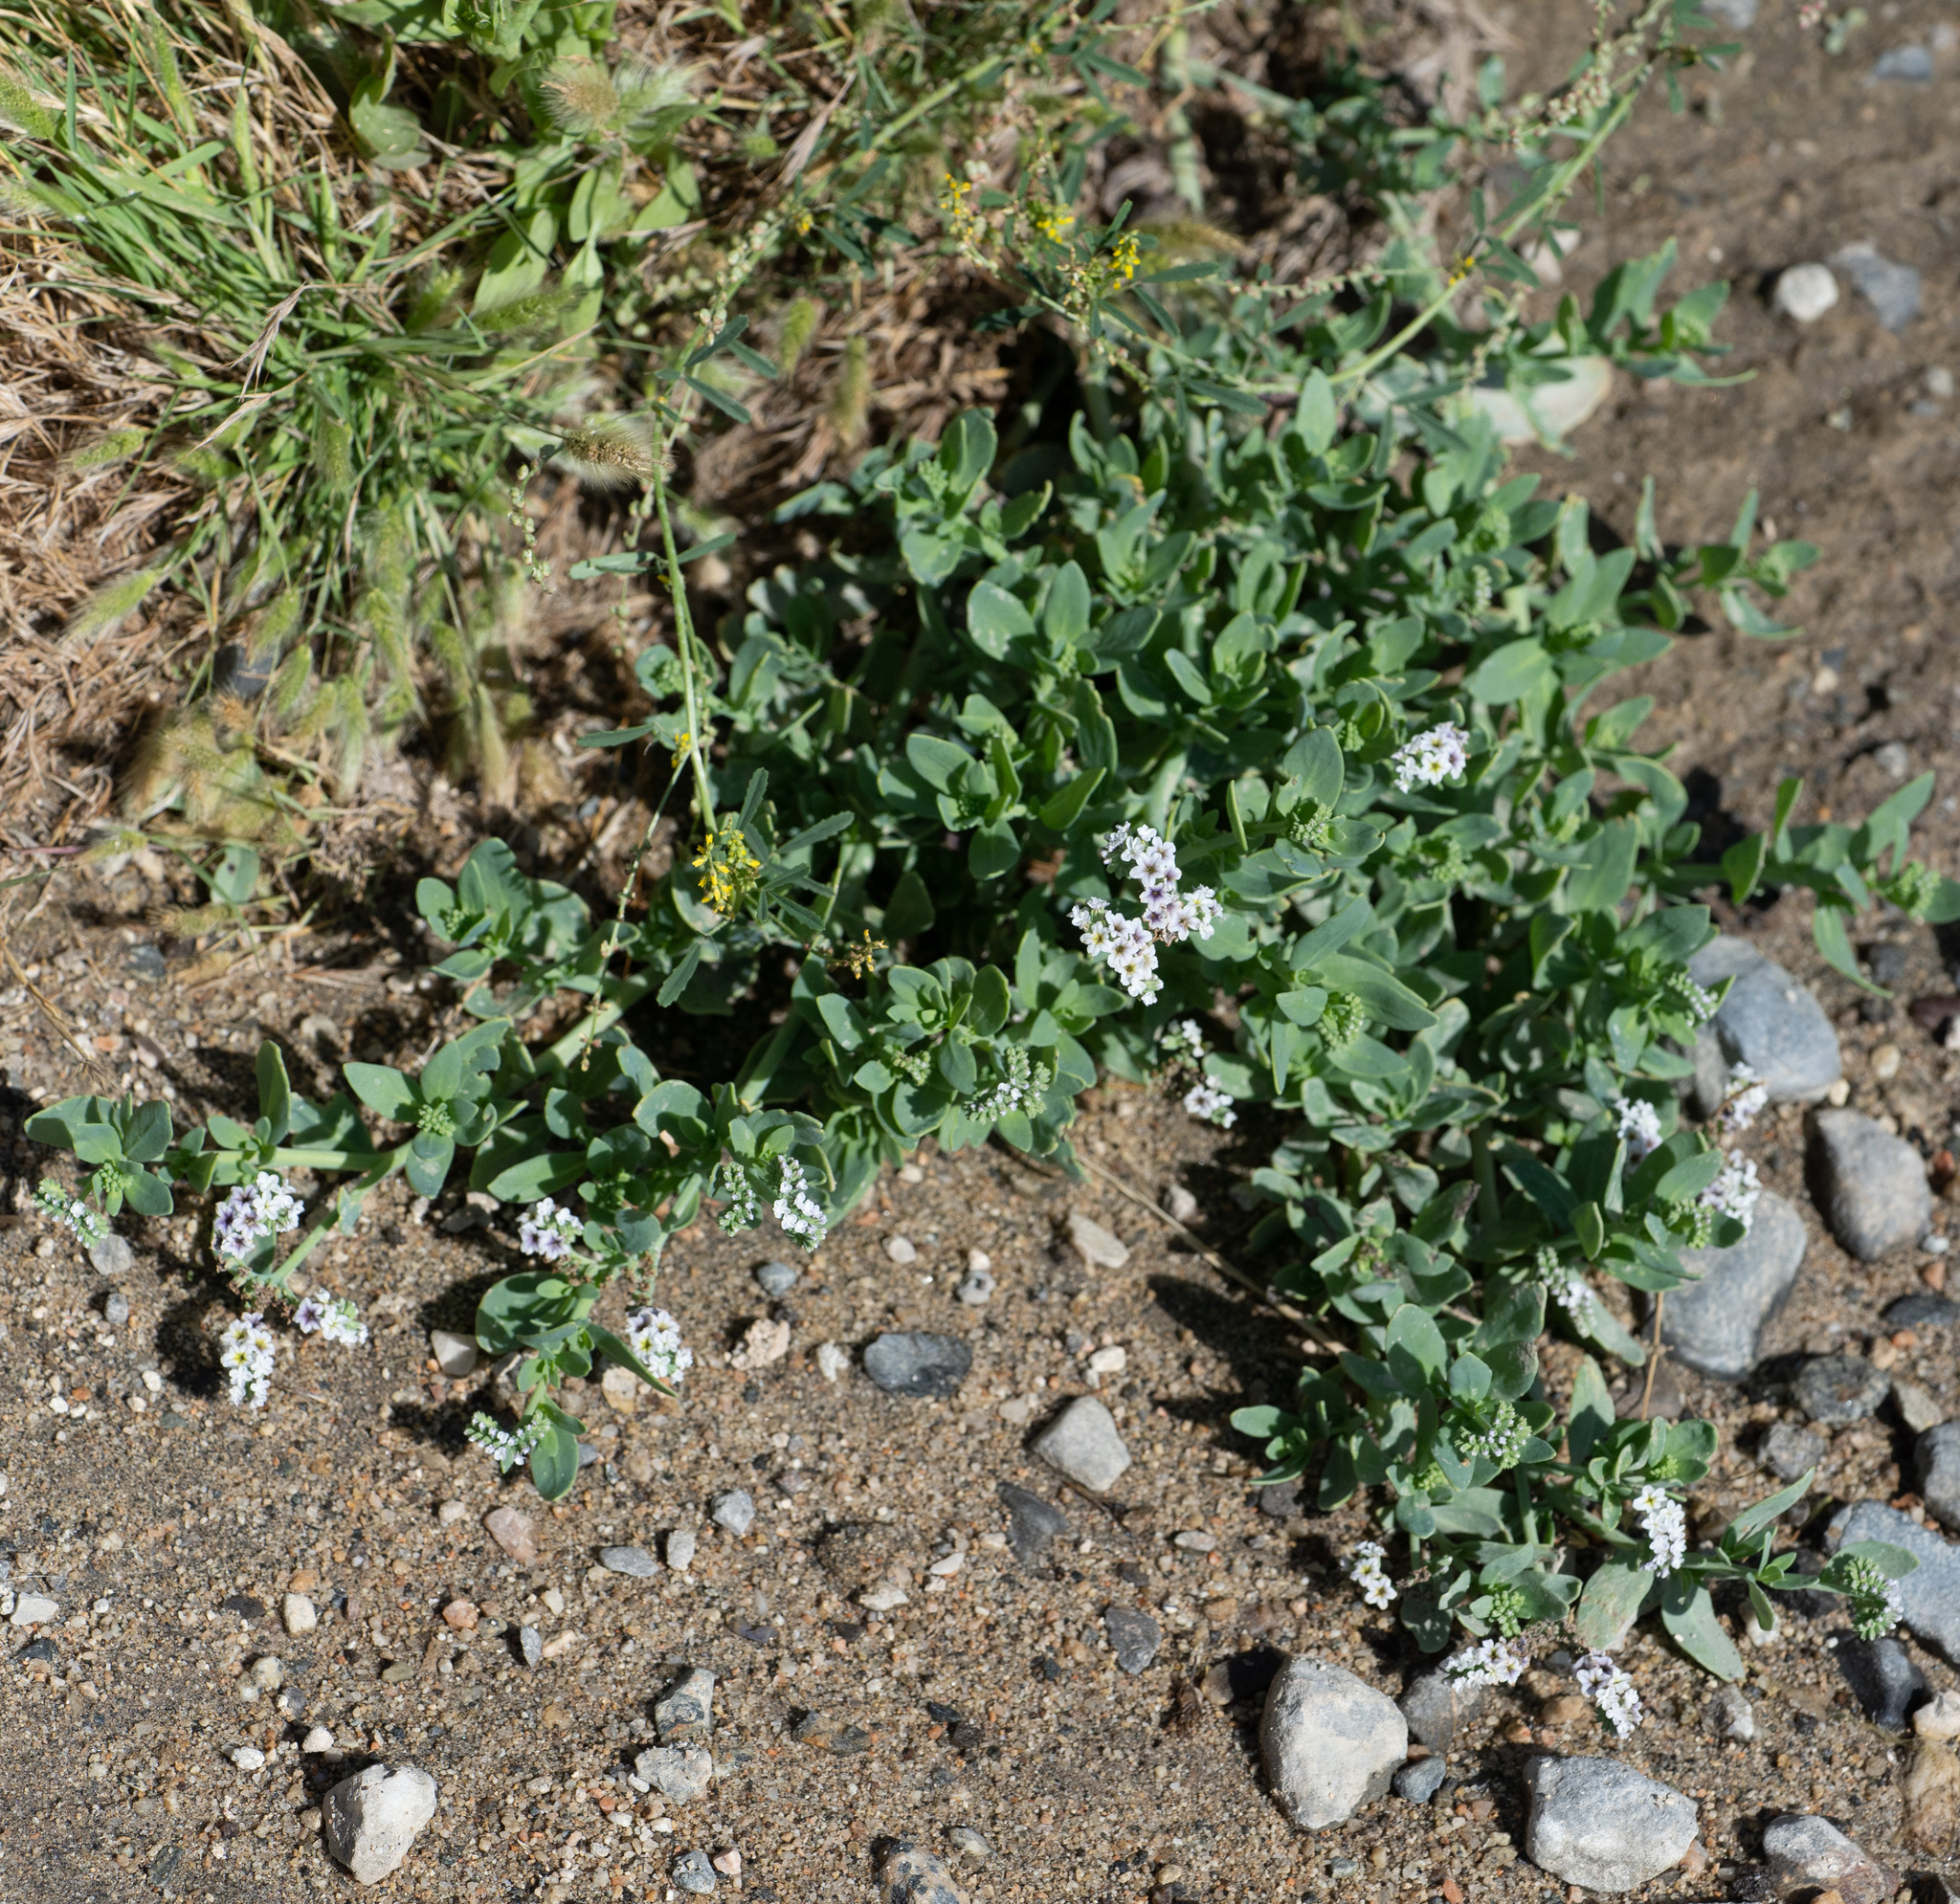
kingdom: Plantae
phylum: Tracheophyta
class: Magnoliopsida
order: Boraginales
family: Heliotropiaceae
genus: Heliotropium
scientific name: Heliotropium curassavicum
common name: Seaside heliotrope
